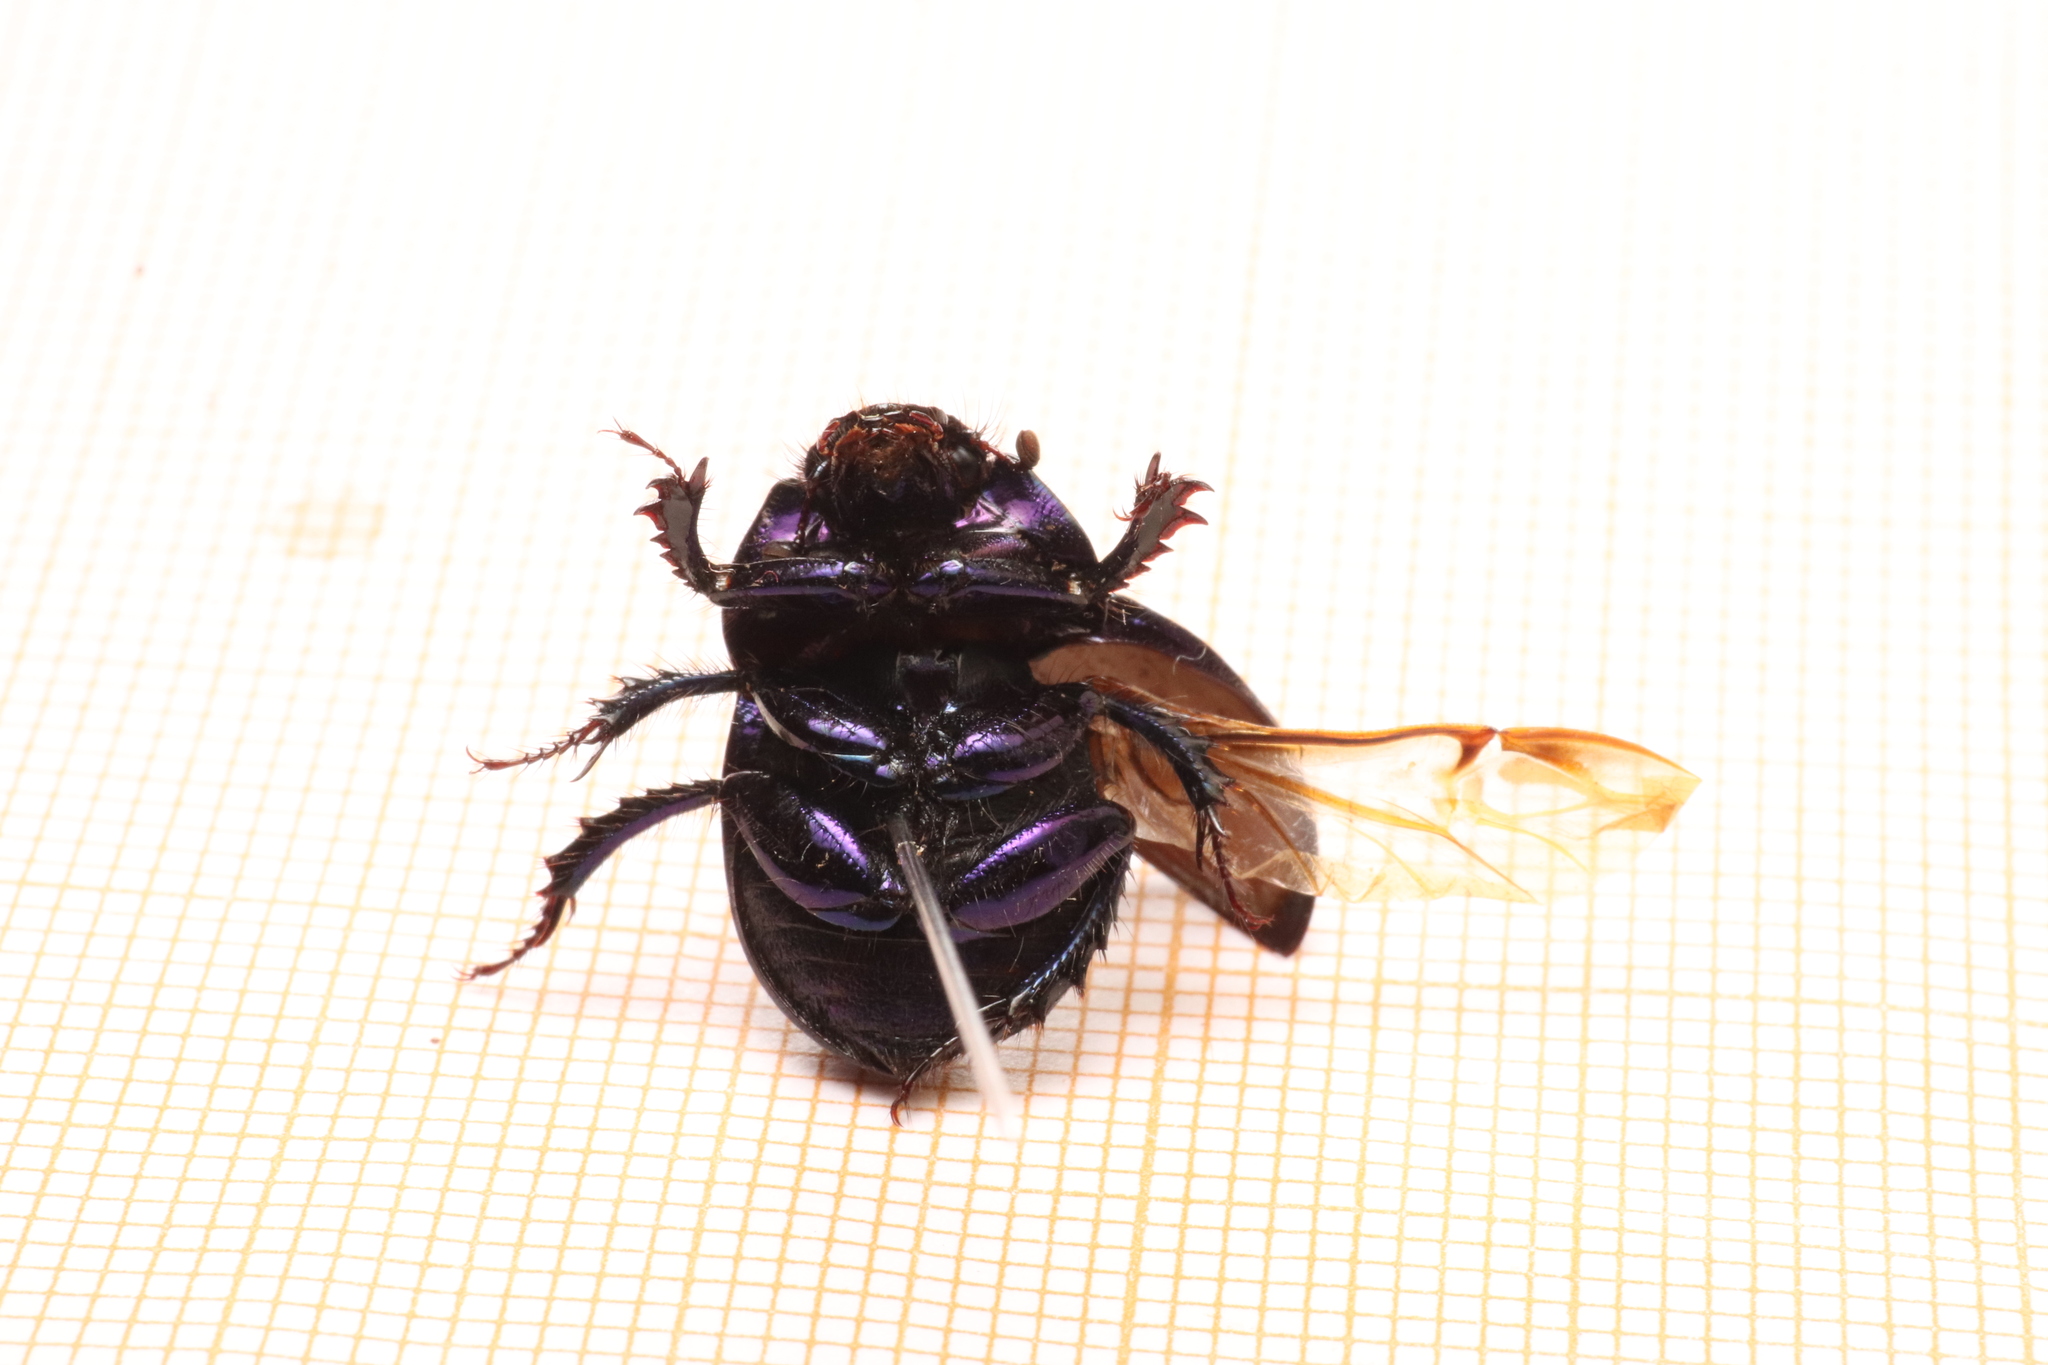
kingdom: Animalia
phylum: Arthropoda
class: Insecta
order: Coleoptera
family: Geotrupidae
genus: Anoplotrupes
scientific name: Anoplotrupes stercorosus
